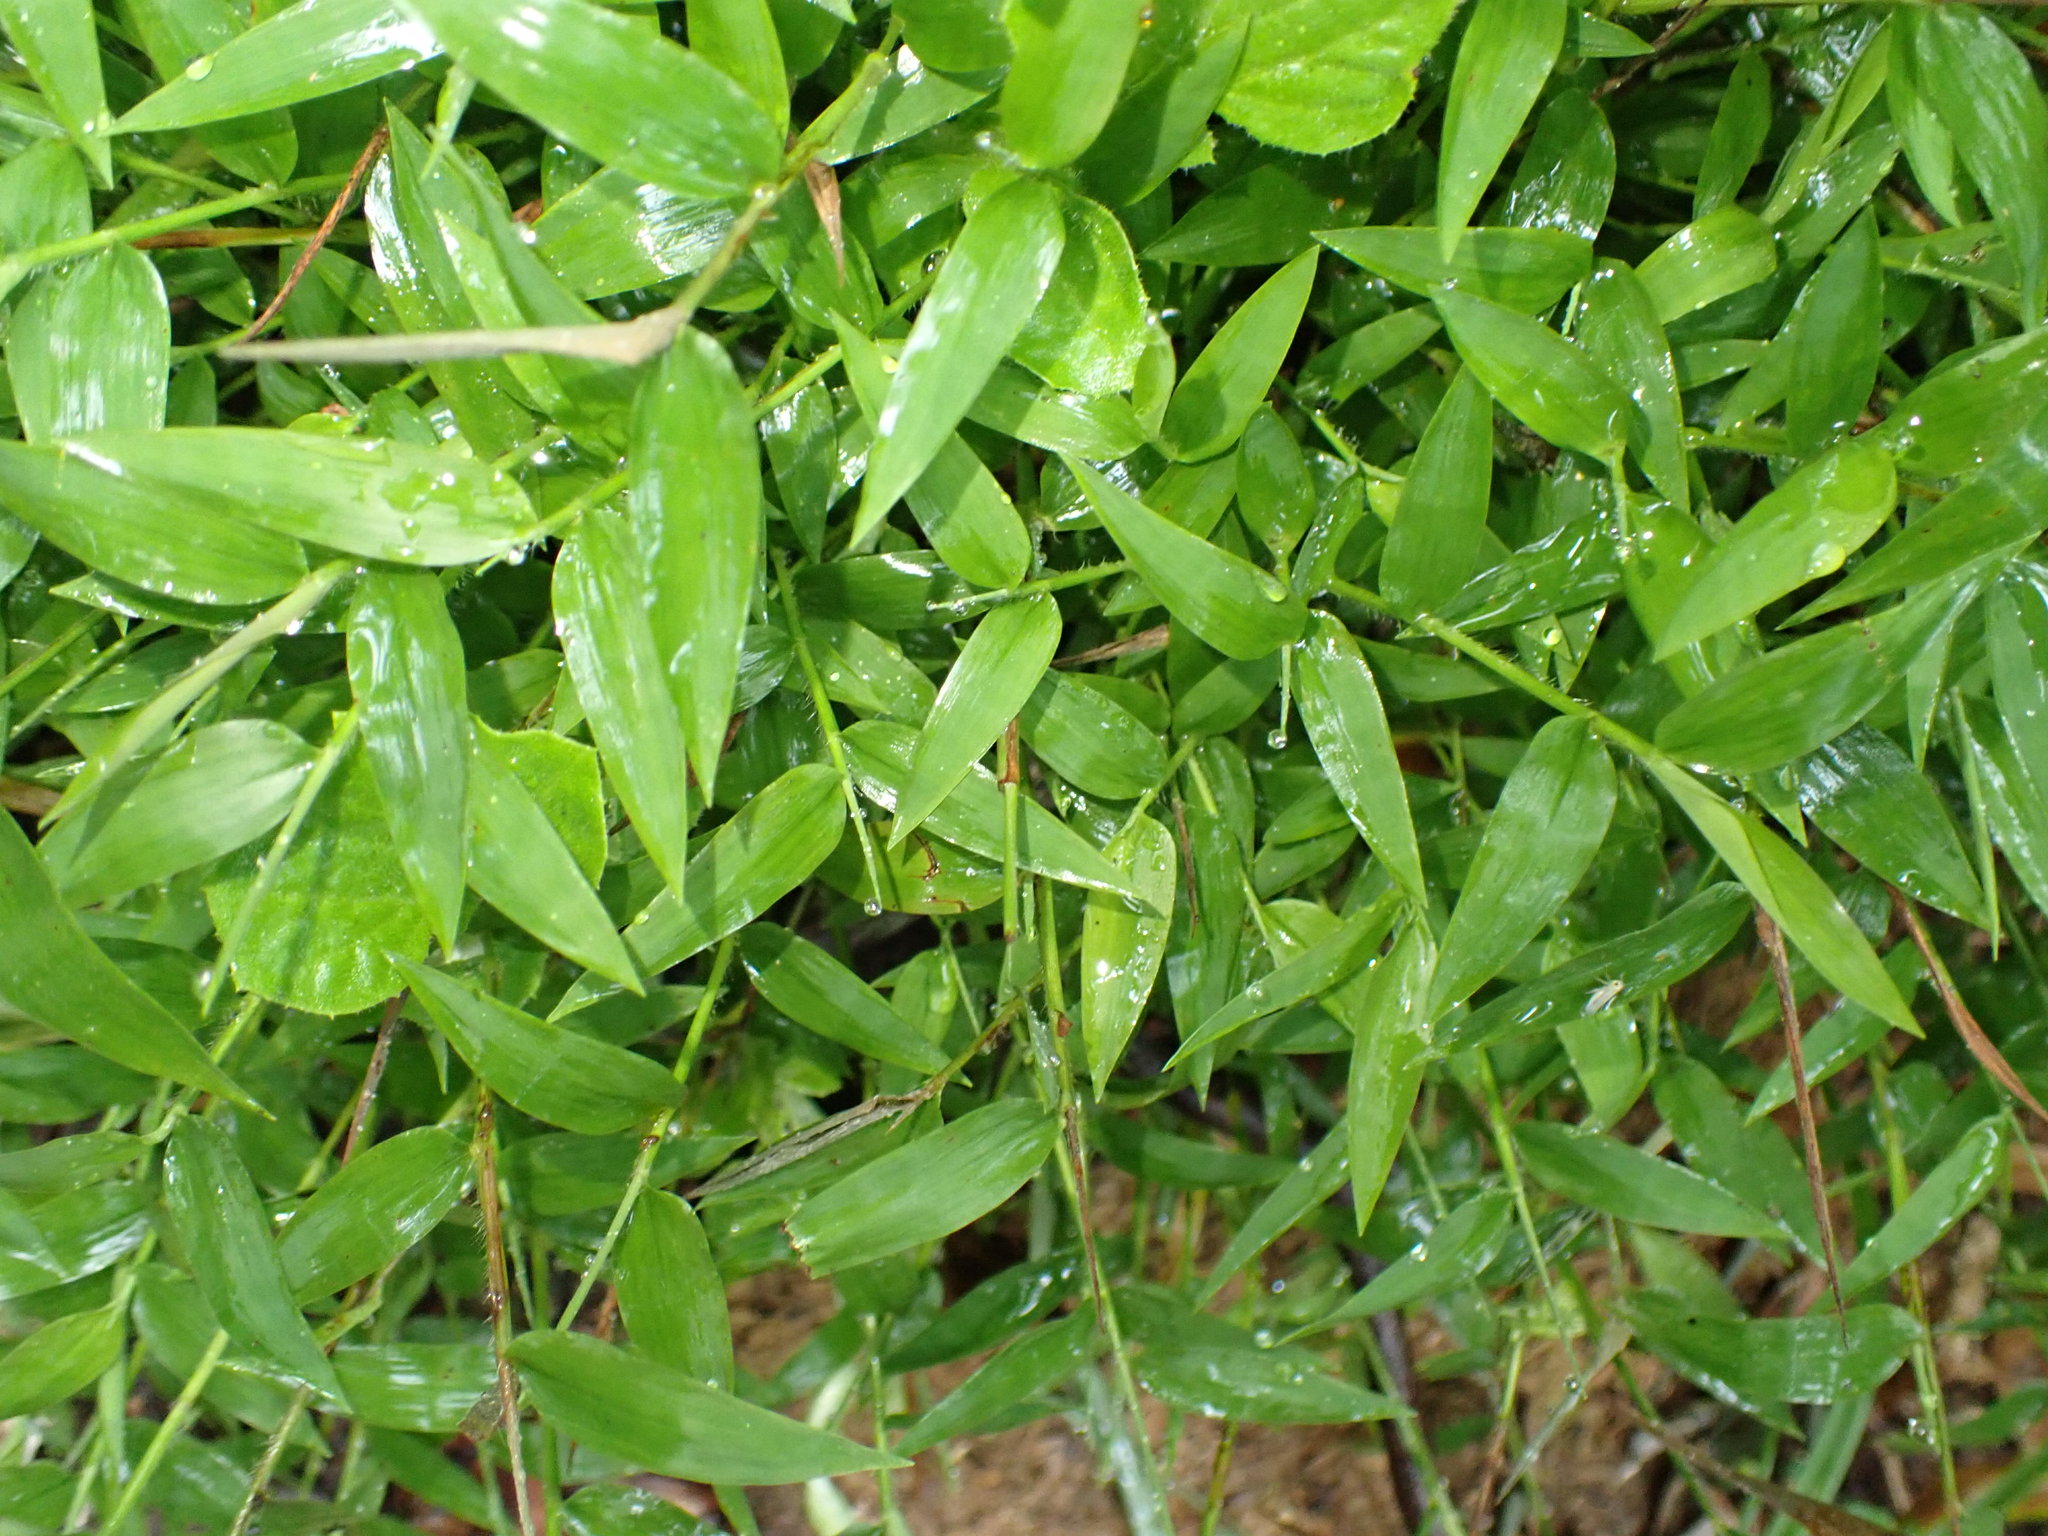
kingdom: Plantae
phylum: Tracheophyta
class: Liliopsida
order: Poales
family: Poaceae
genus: Oplismenus
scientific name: Oplismenus hirtellus
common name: Basketgrass
